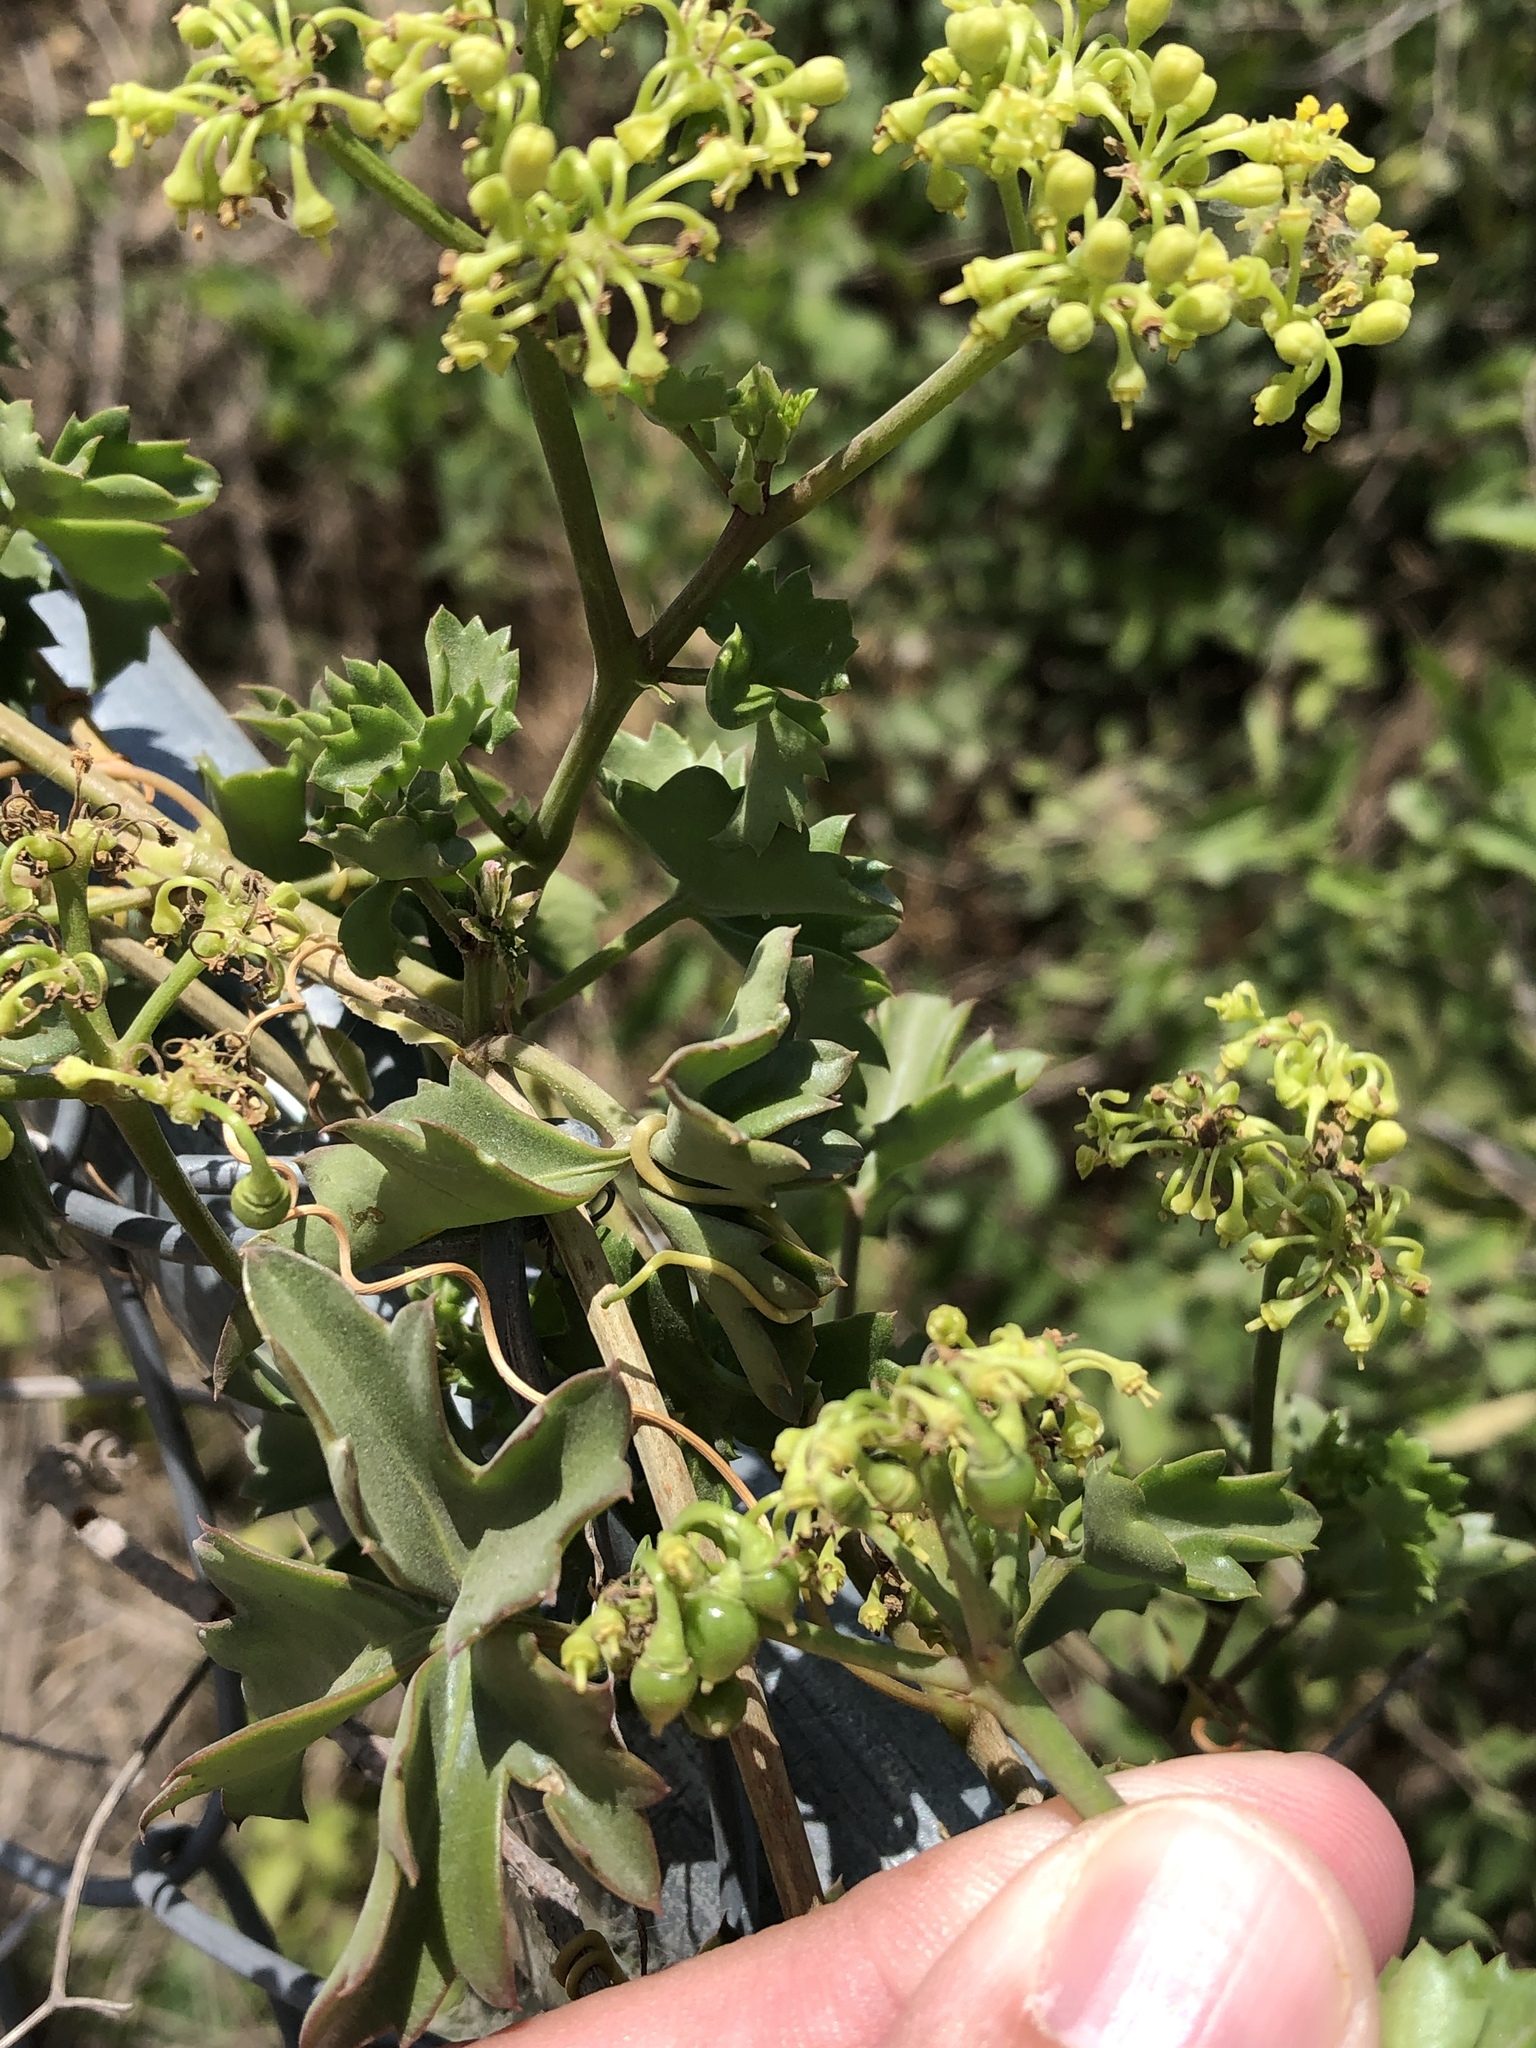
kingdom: Plantae
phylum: Tracheophyta
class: Magnoliopsida
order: Vitales
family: Vitaceae
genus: Cissus
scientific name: Cissus trifoliata
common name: Vine-sorrel
